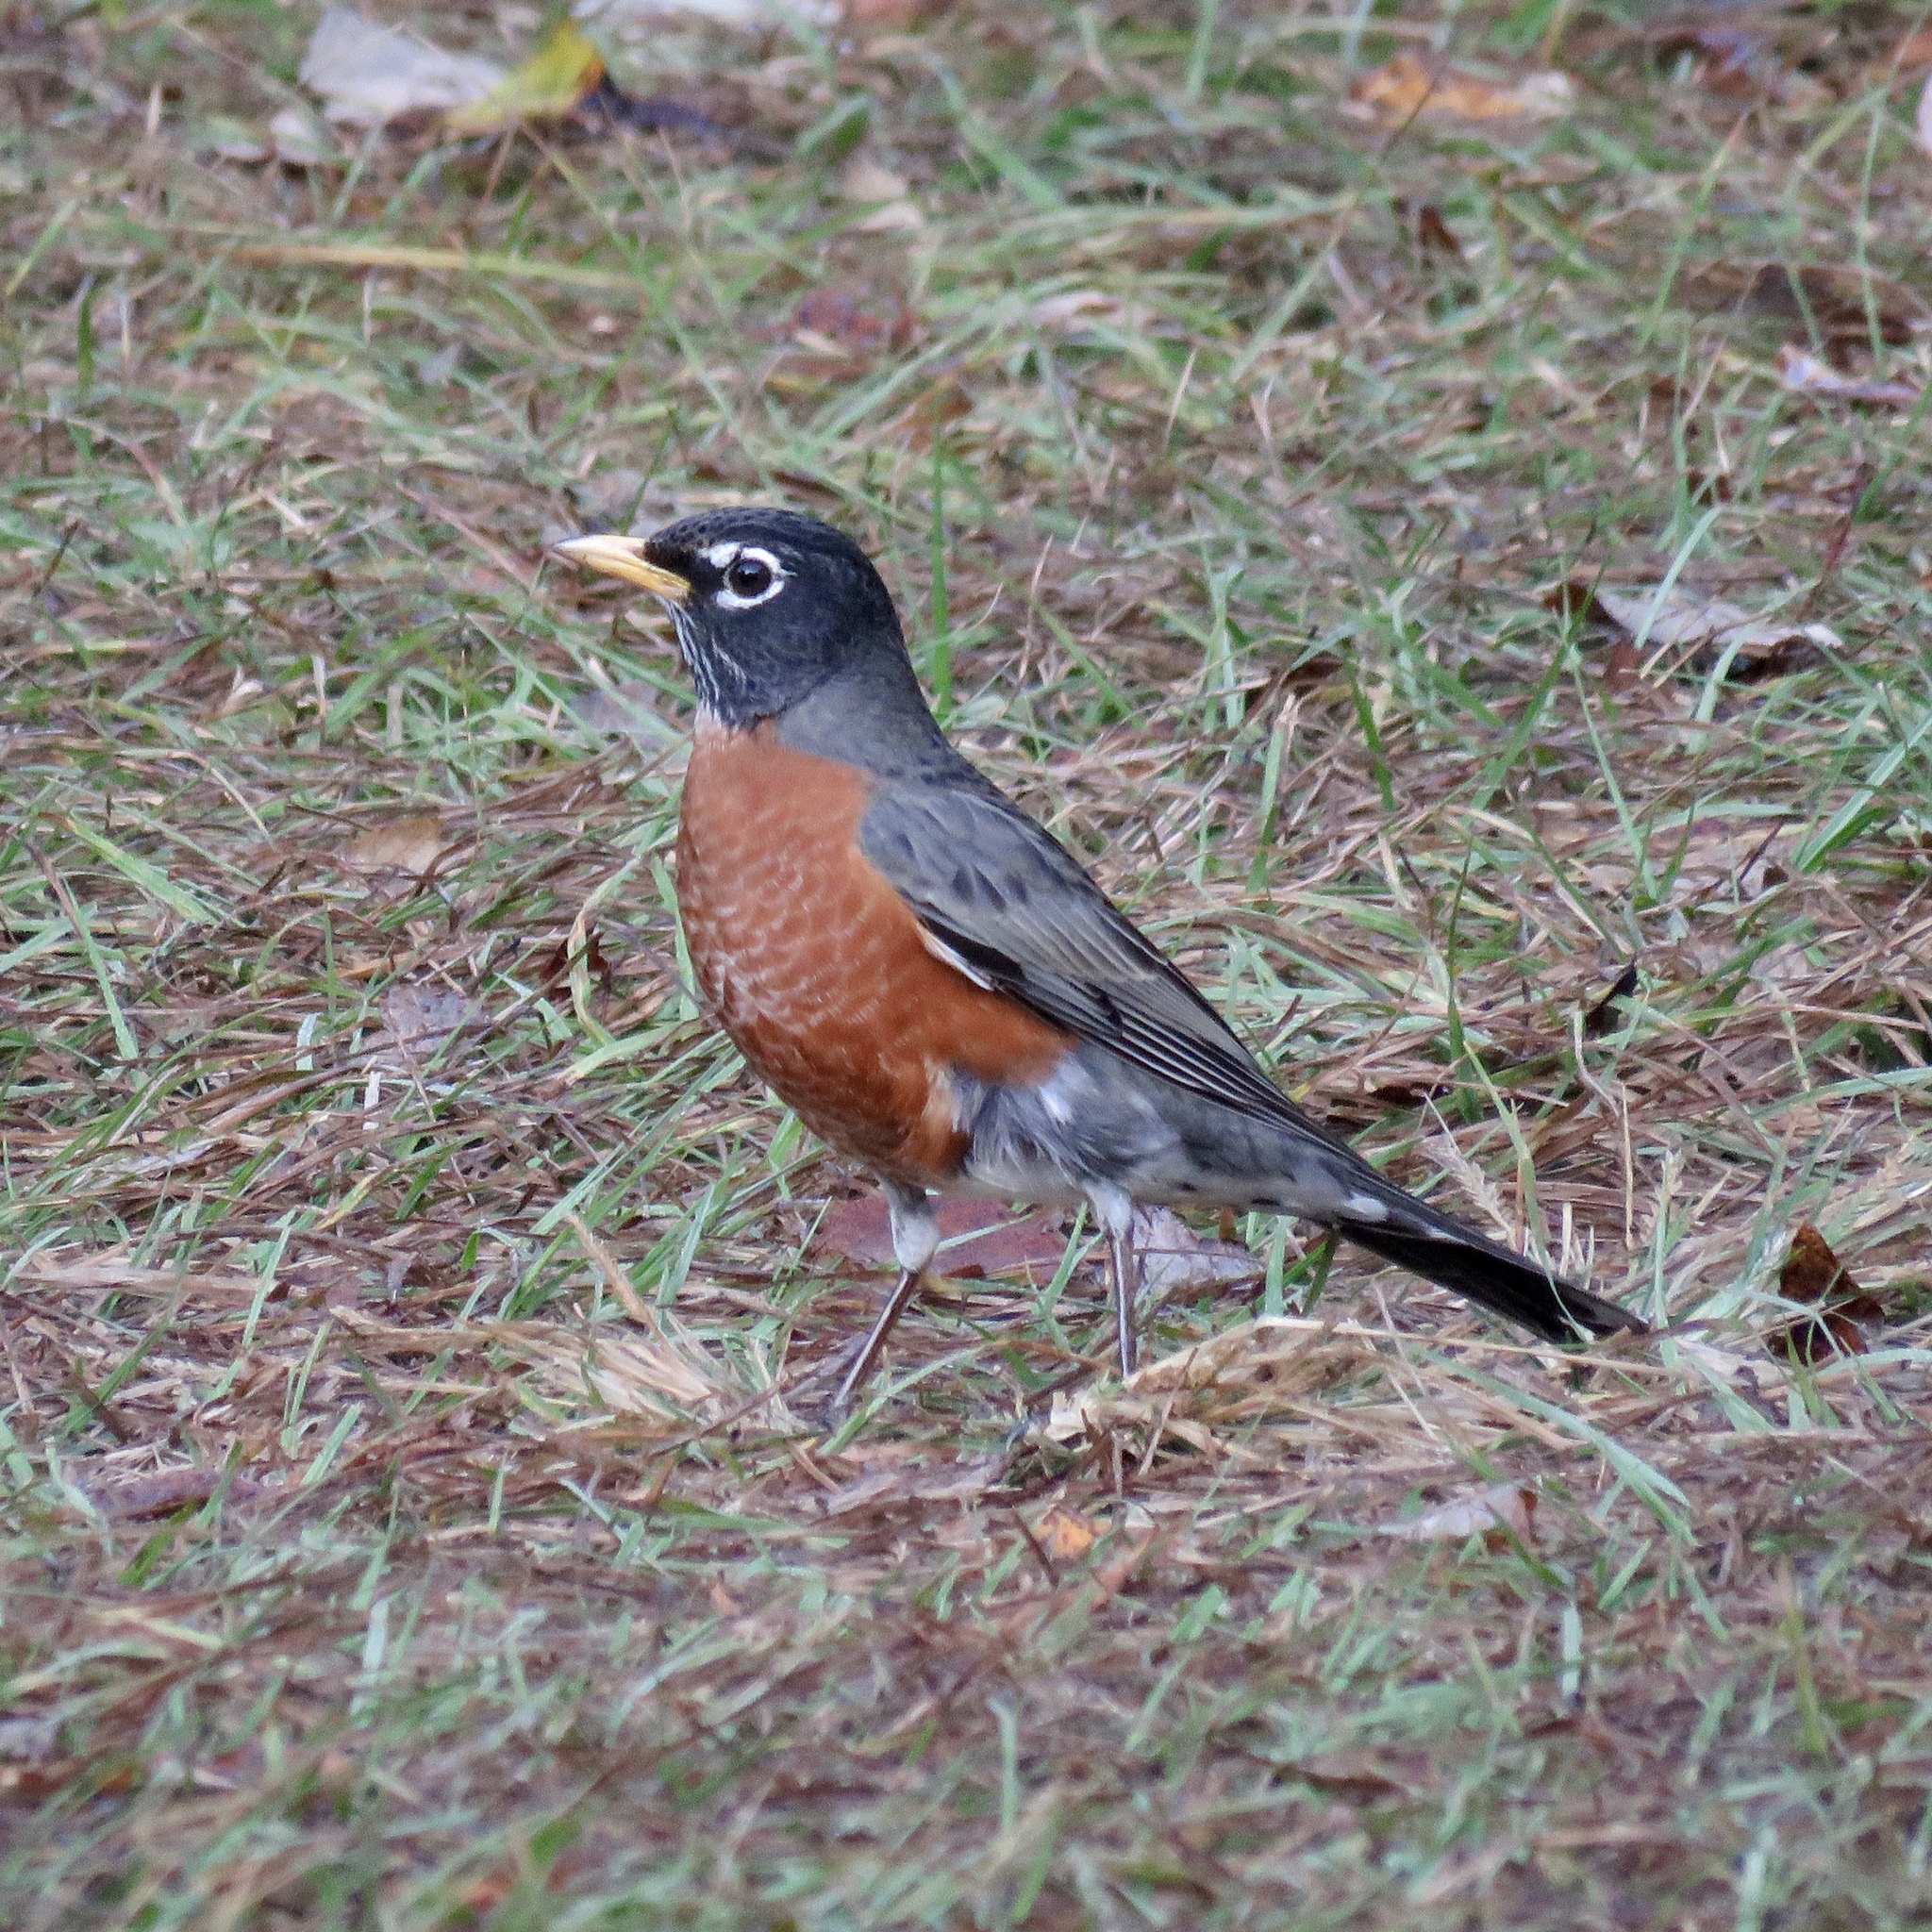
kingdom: Animalia
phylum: Chordata
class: Aves
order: Passeriformes
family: Turdidae
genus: Turdus
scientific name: Turdus migratorius
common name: American robin
